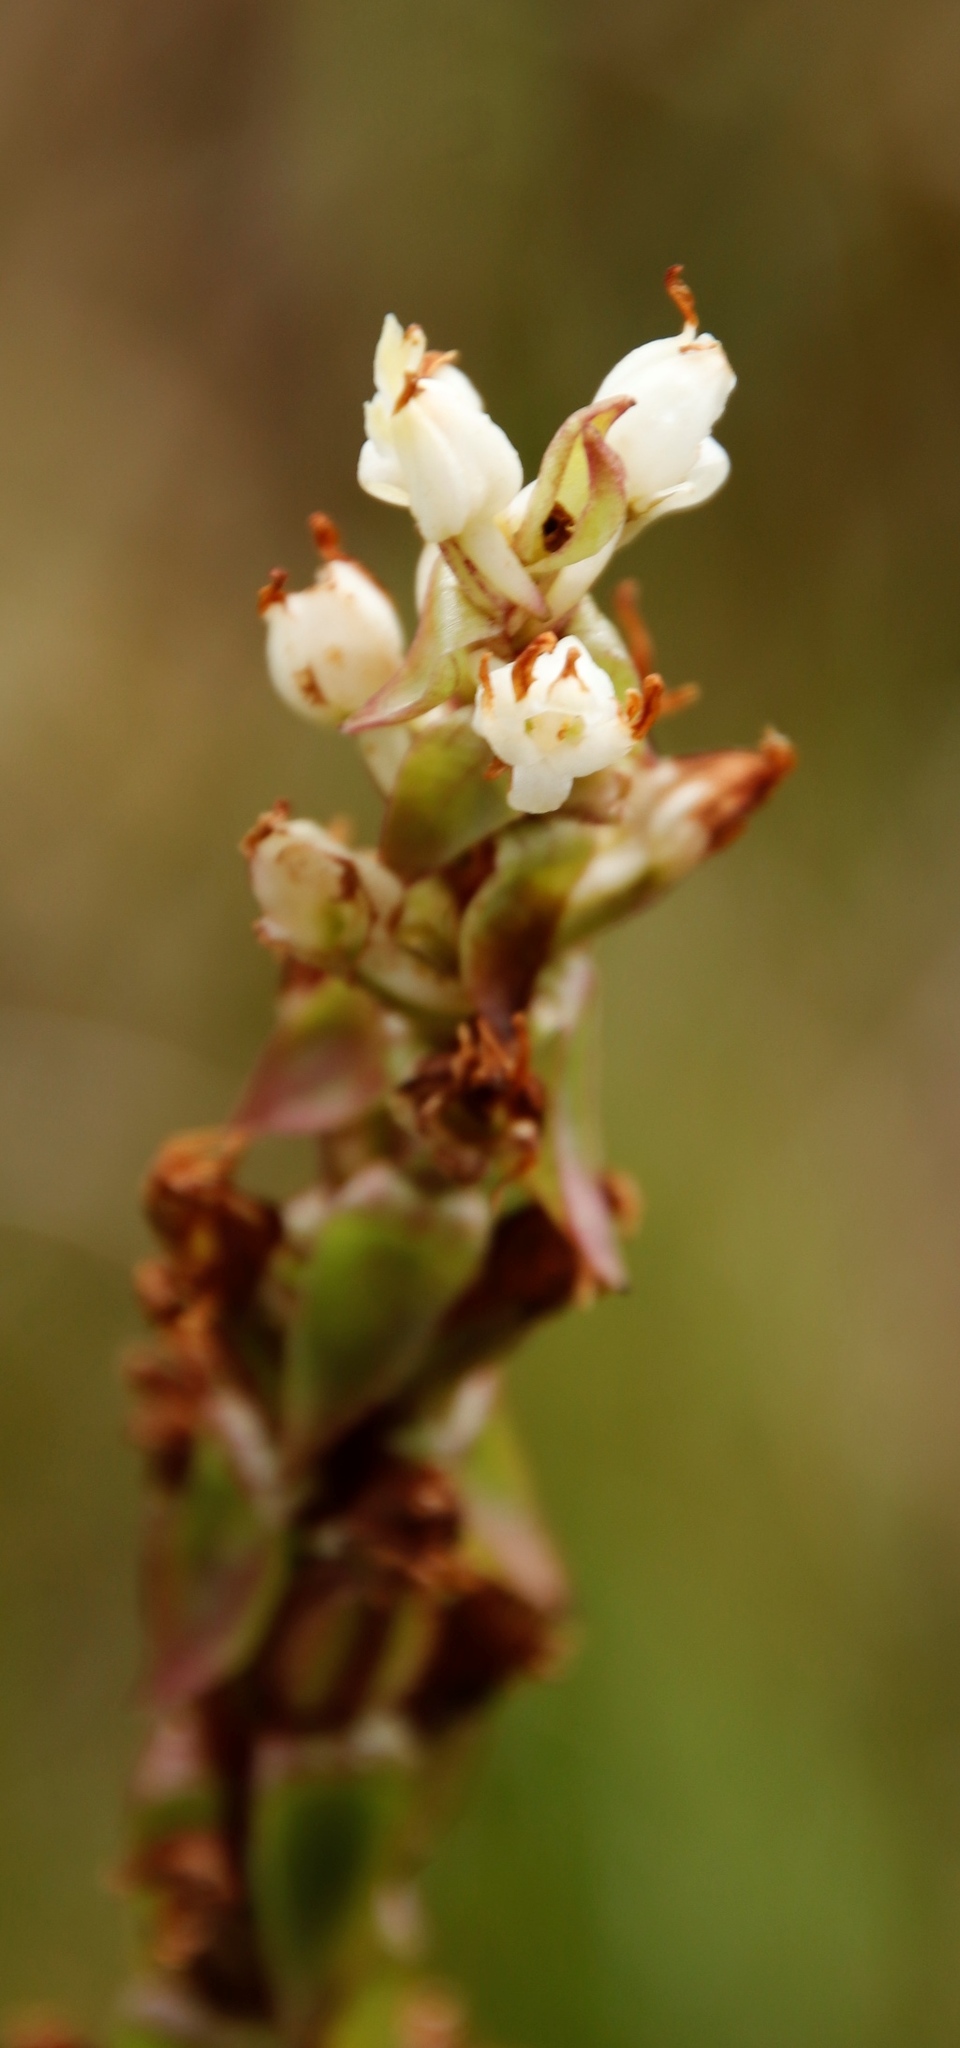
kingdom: Plantae
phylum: Tracheophyta
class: Liliopsida
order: Asparagales
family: Orchidaceae
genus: Satyrium
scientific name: Satyrium ligulatum
